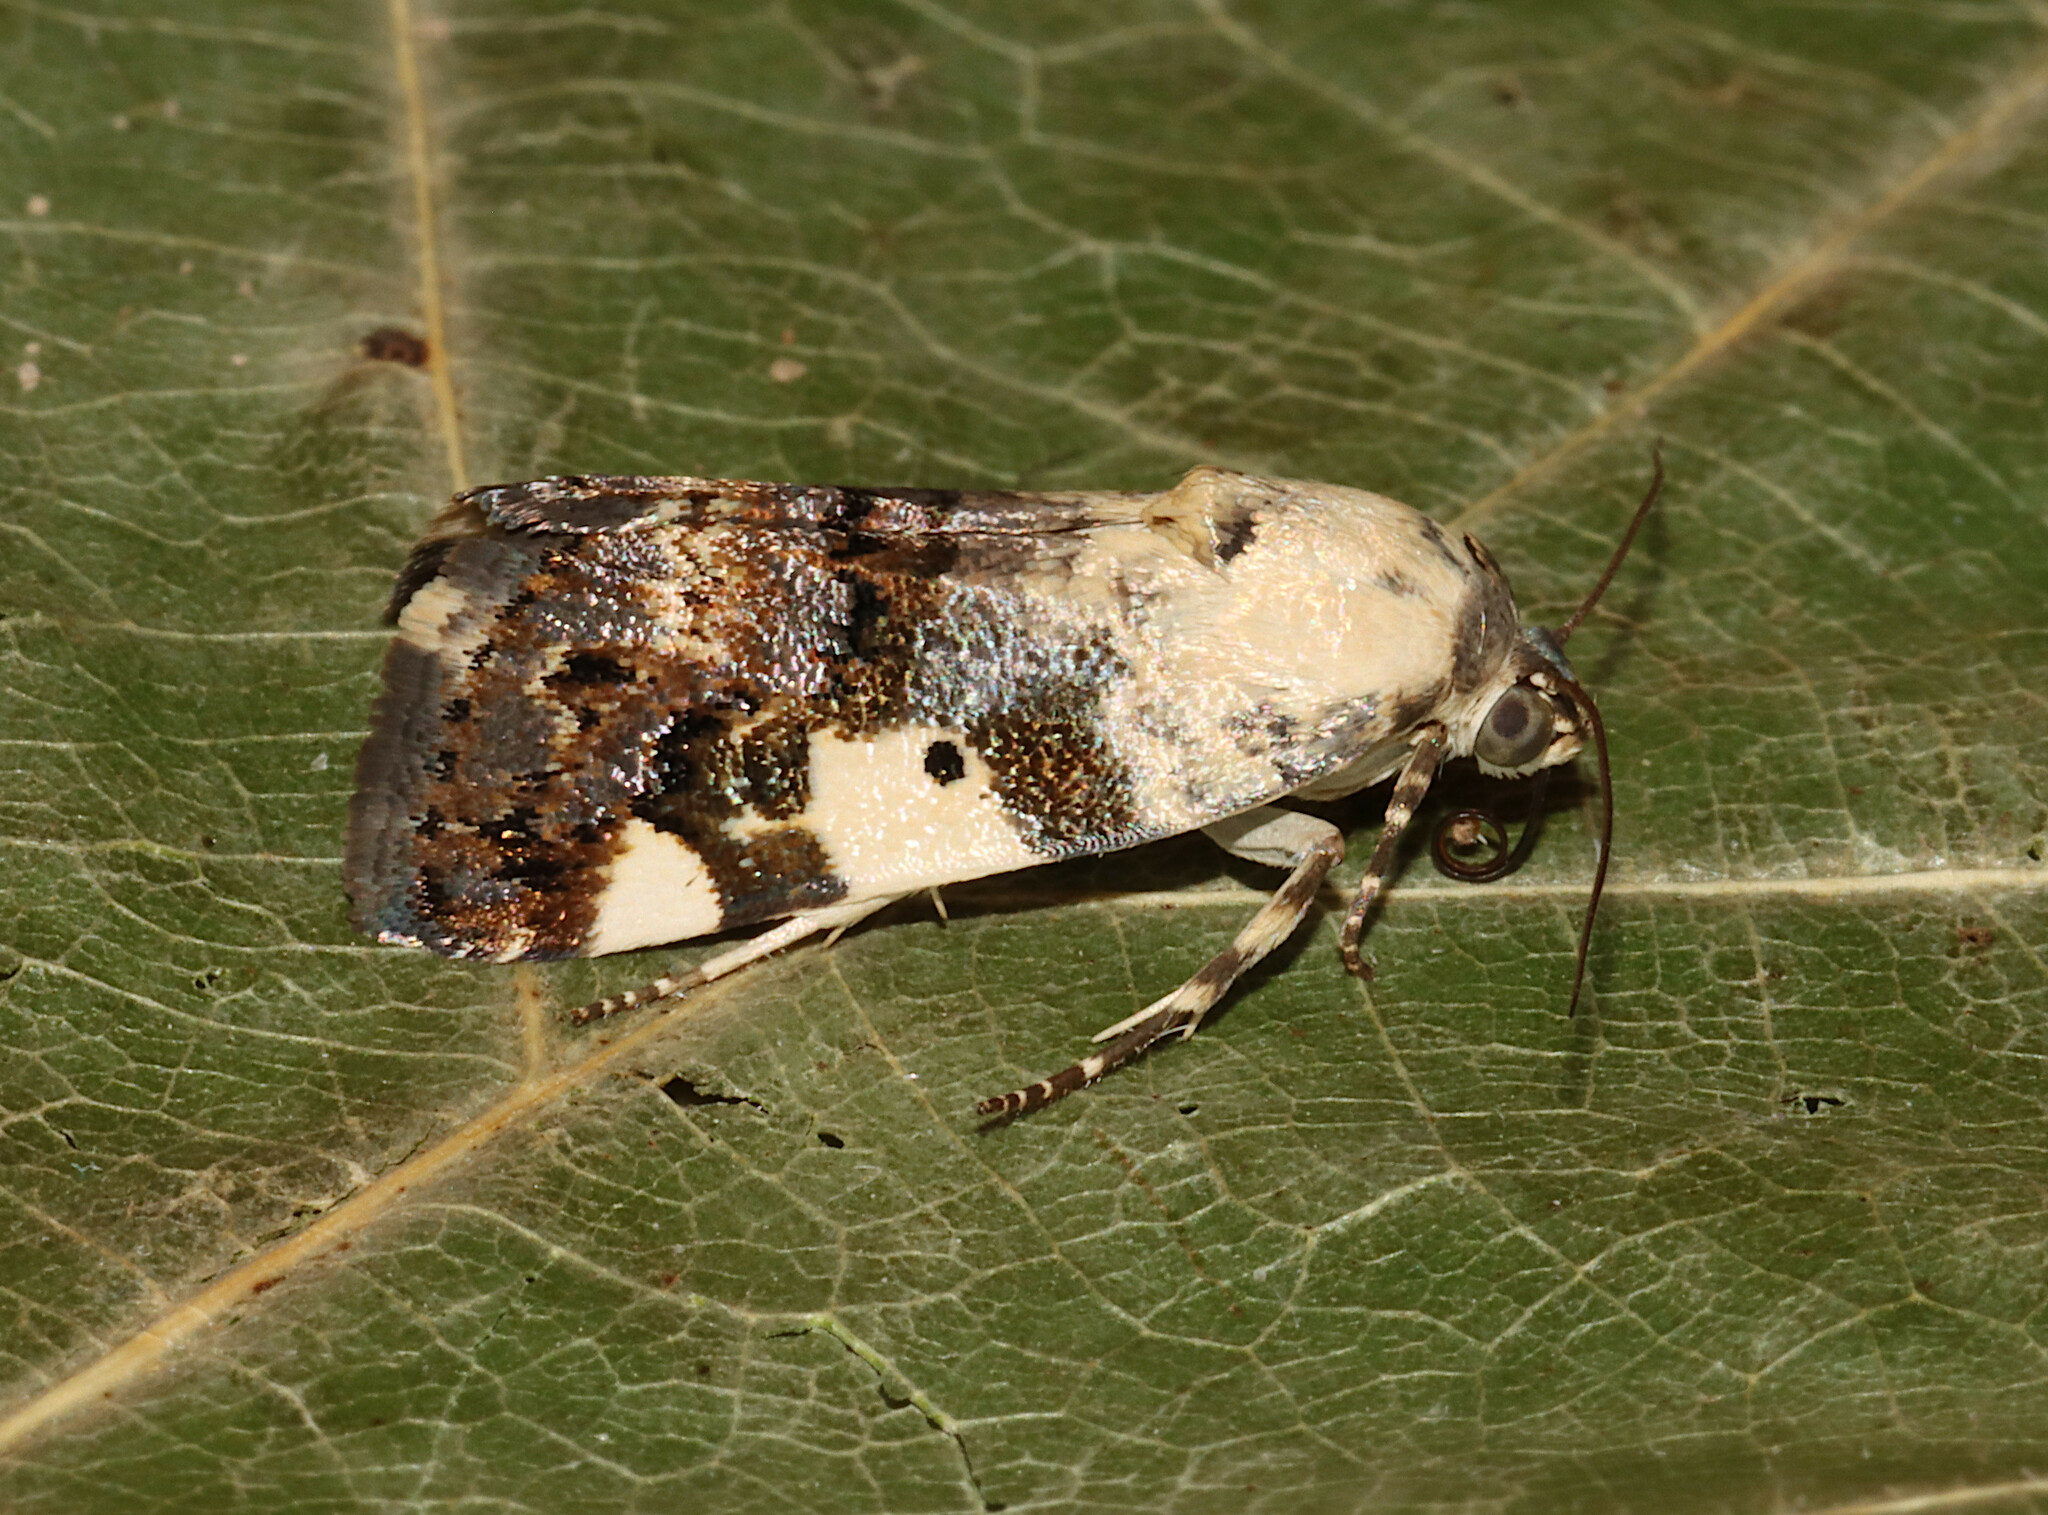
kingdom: Animalia
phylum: Arthropoda
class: Insecta
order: Lepidoptera
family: Noctuidae
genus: Acontia
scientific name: Acontia aprica
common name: Nun
